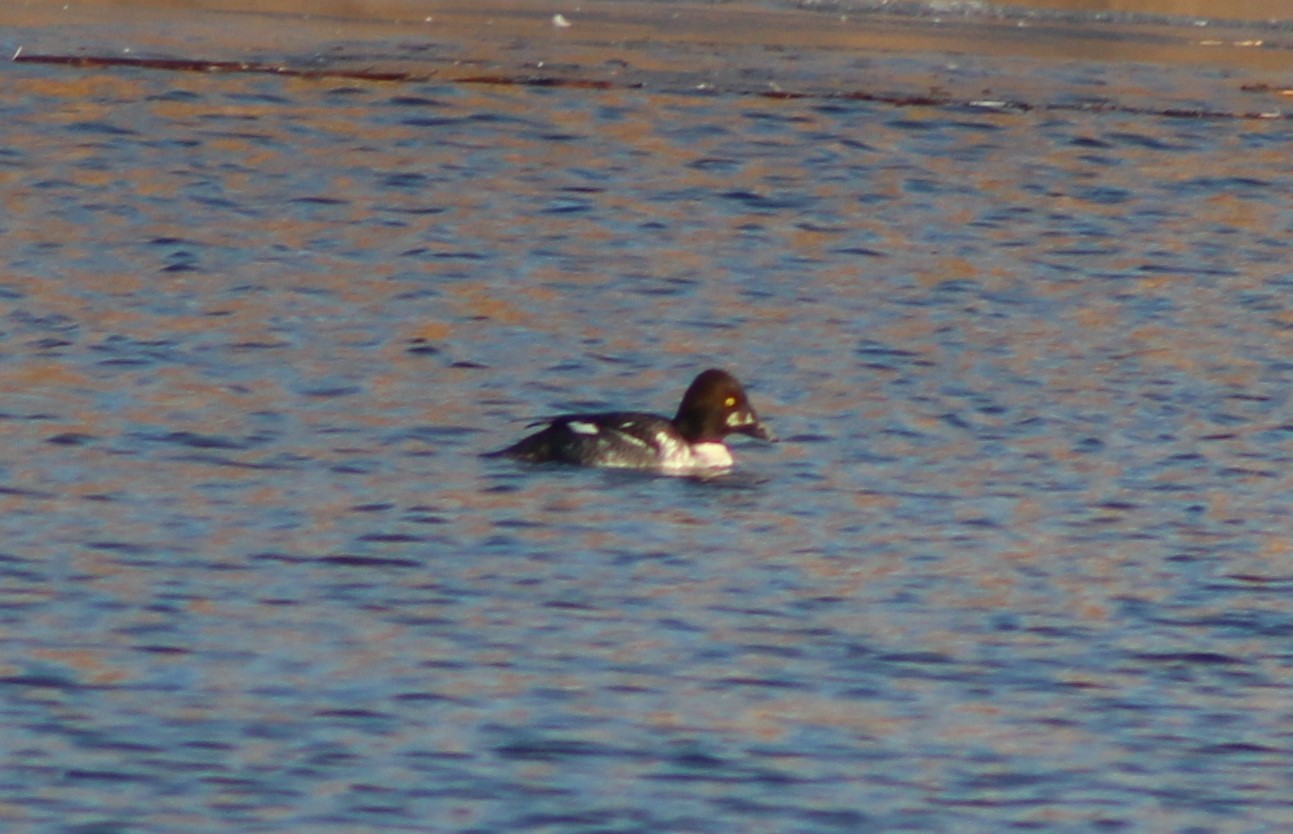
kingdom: Animalia
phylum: Chordata
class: Aves
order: Anseriformes
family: Anatidae
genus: Bucephala
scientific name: Bucephala clangula
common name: Common goldeneye
